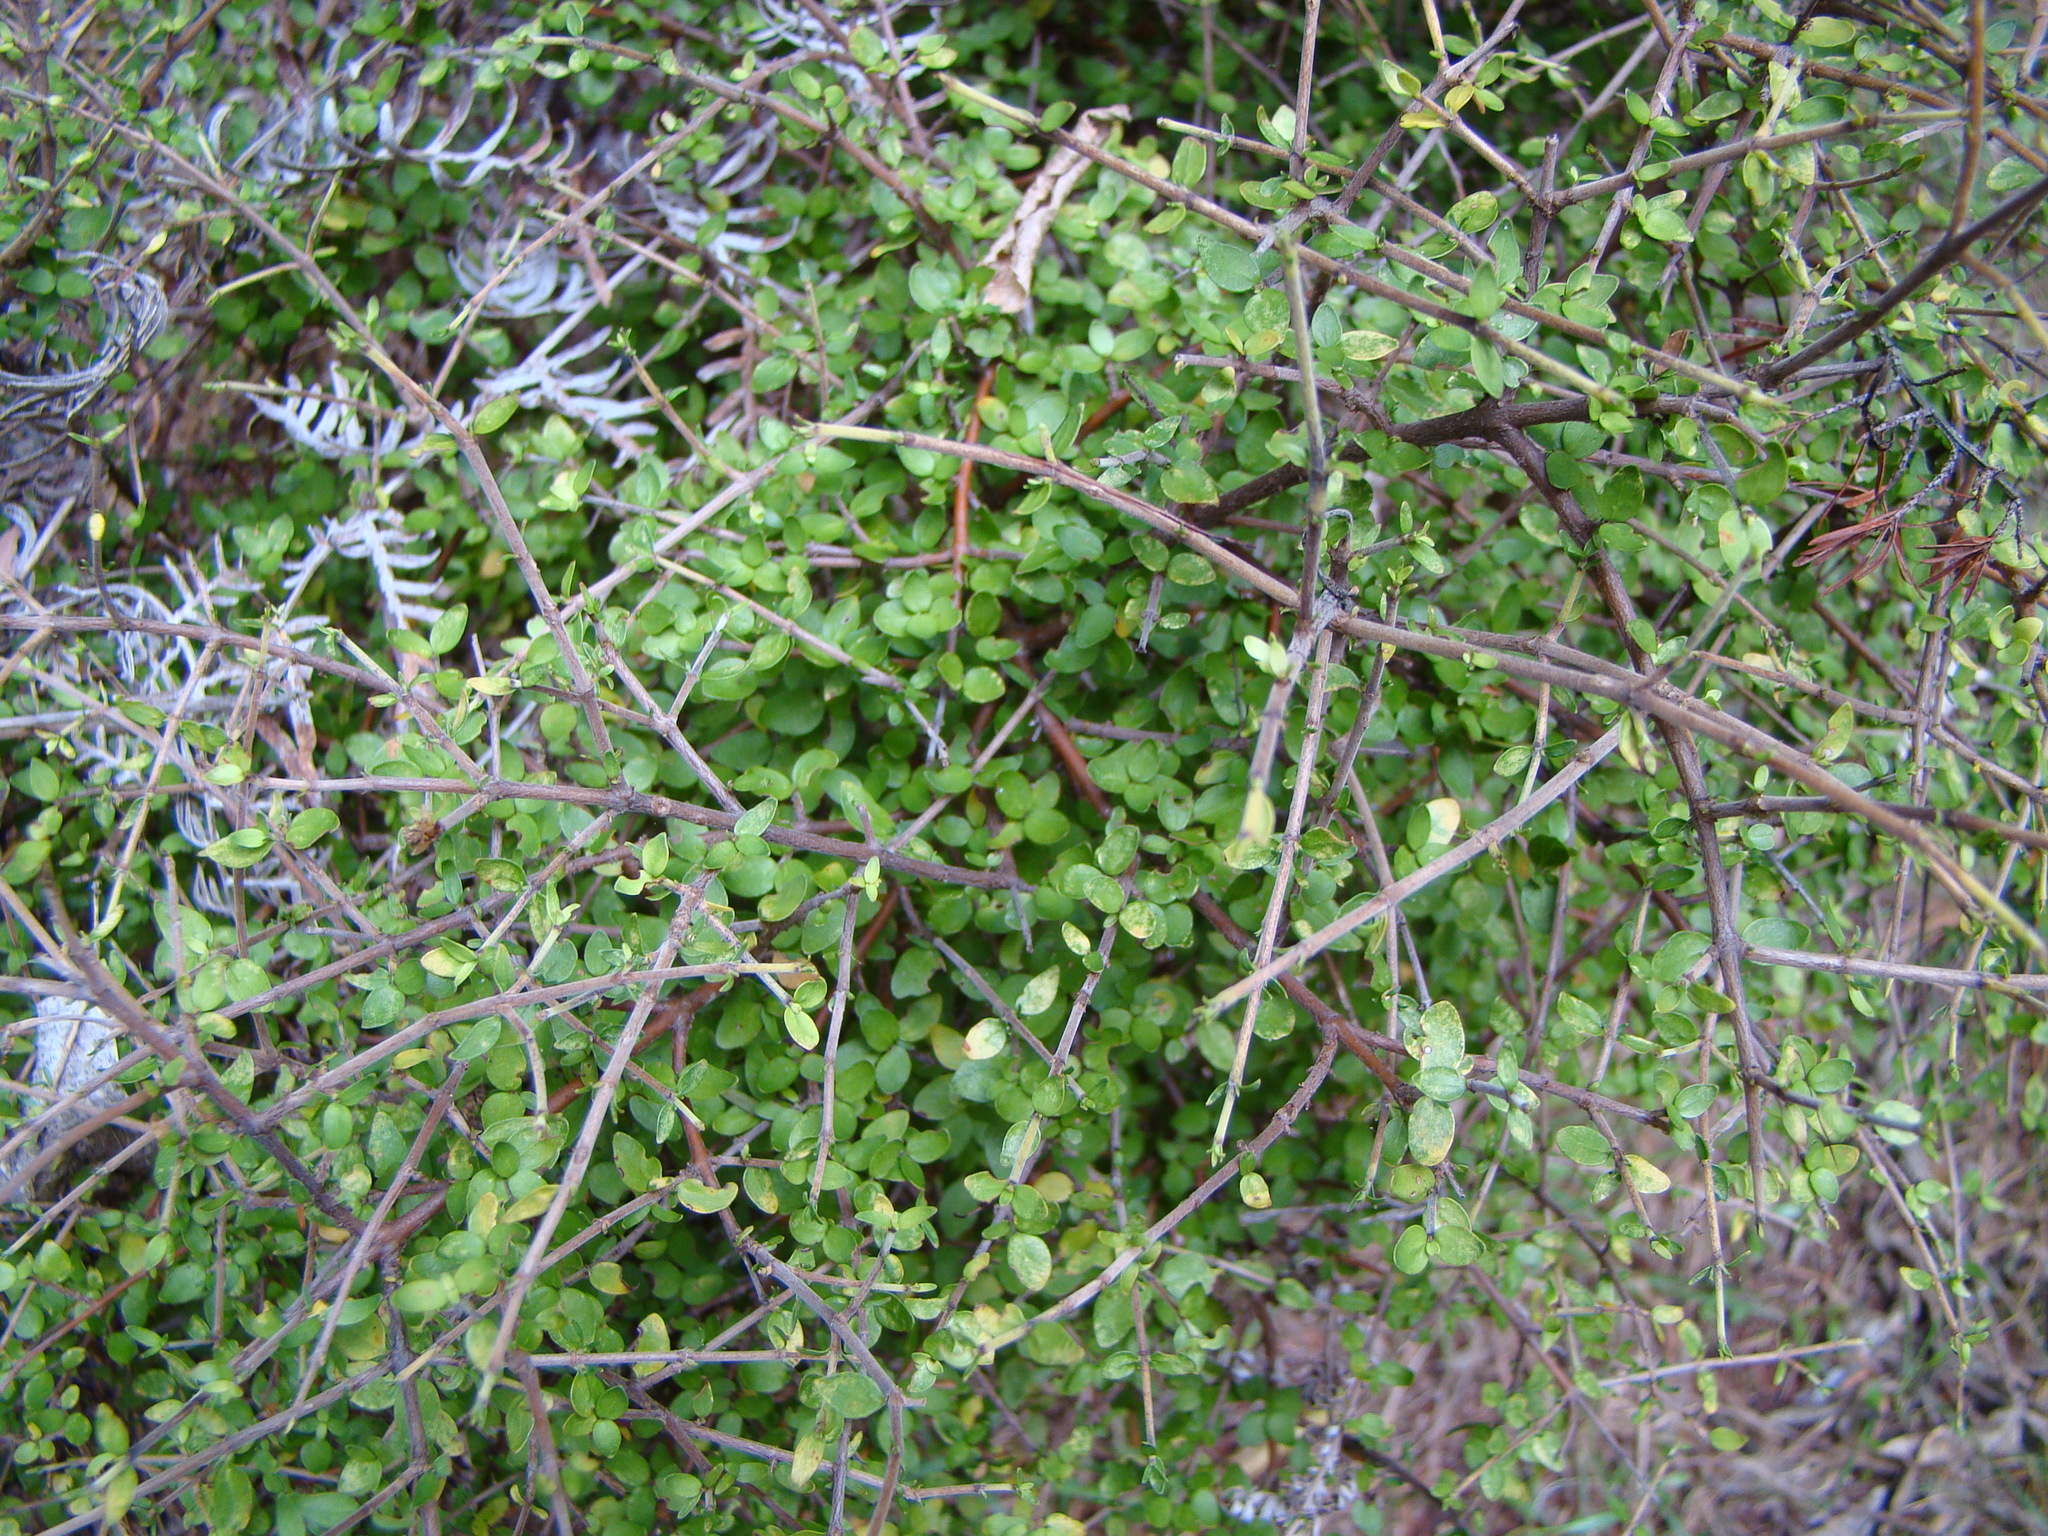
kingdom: Plantae
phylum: Tracheophyta
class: Magnoliopsida
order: Gentianales
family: Rubiaceae
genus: Coprosma
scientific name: Coprosma rhamnoides
